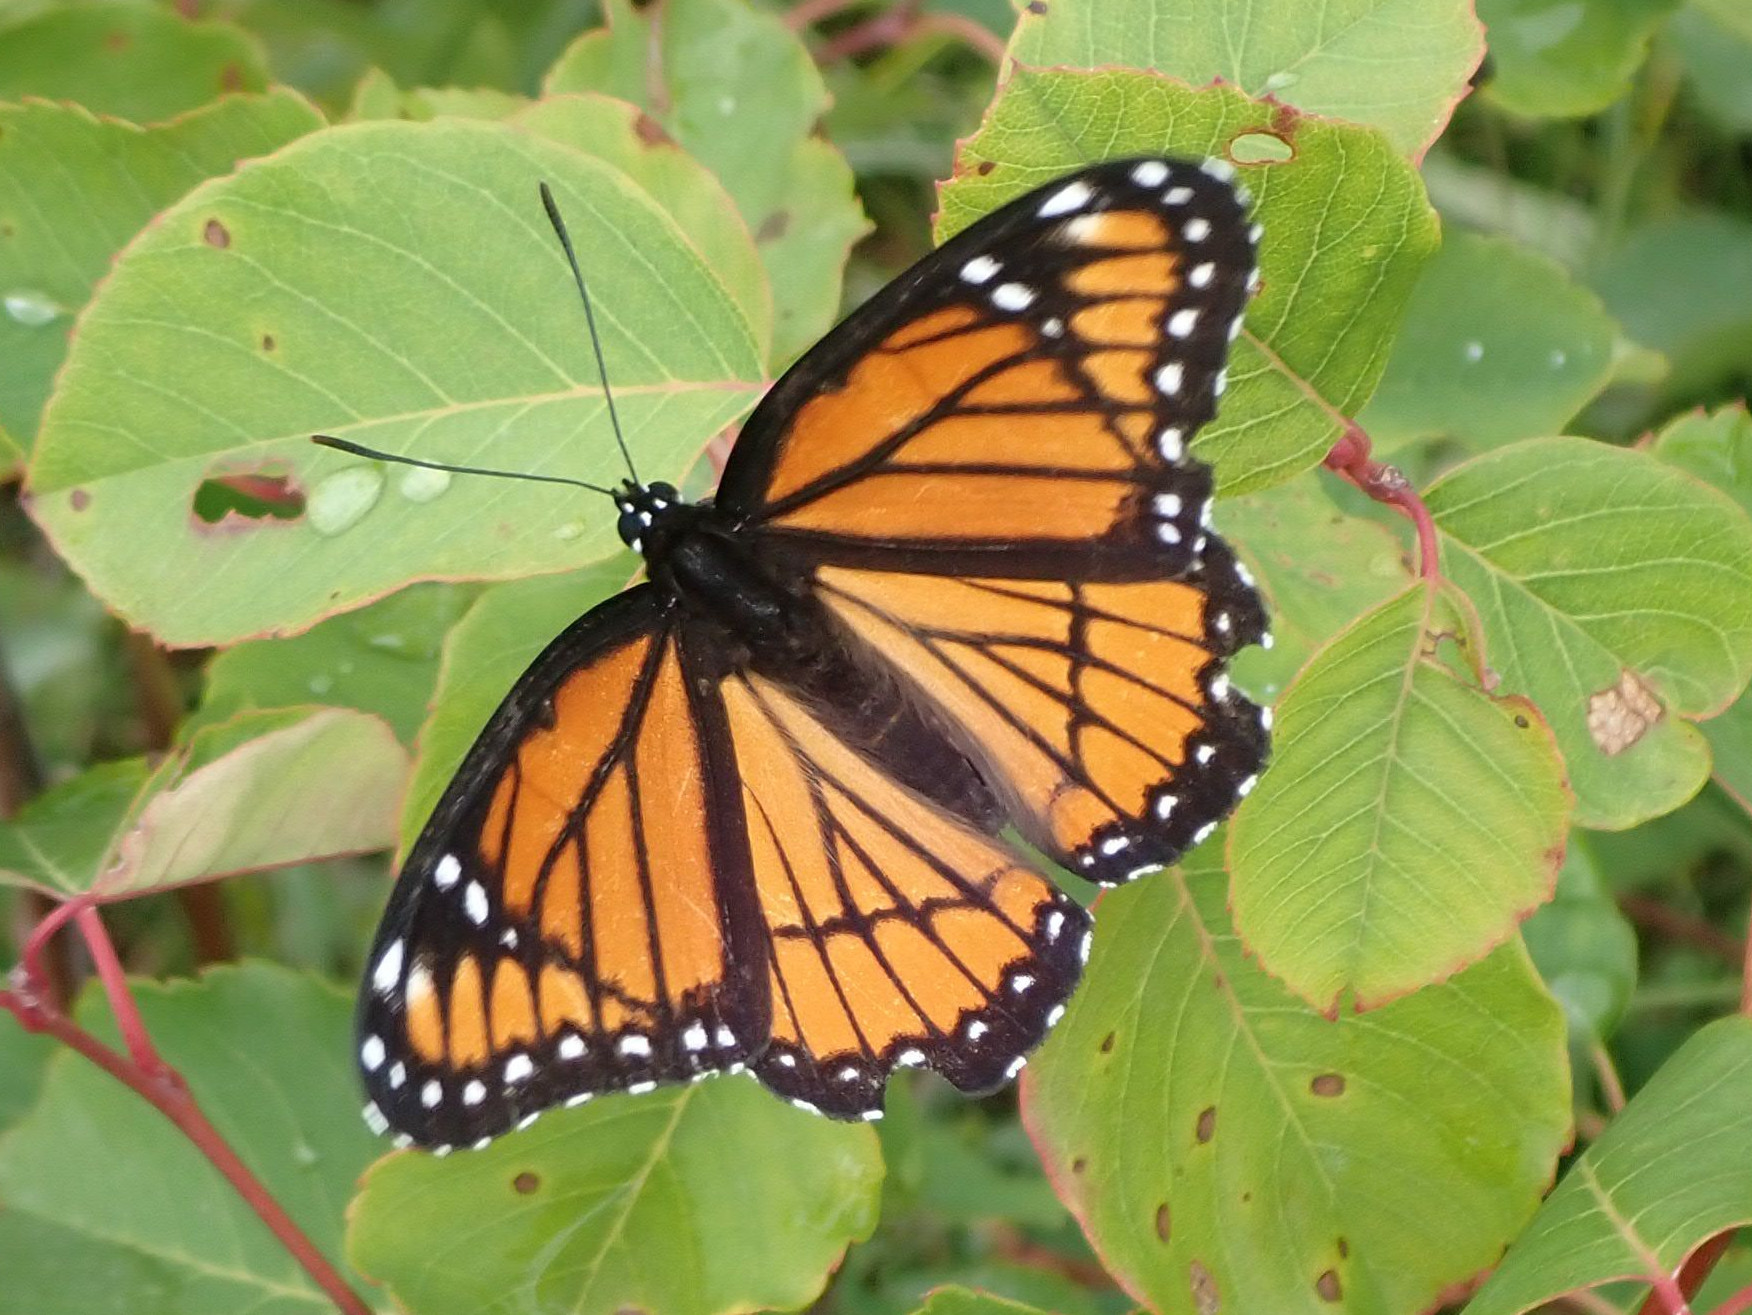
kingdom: Animalia
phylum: Arthropoda
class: Insecta
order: Lepidoptera
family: Nymphalidae
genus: Limenitis
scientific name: Limenitis archippus
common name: Viceroy
